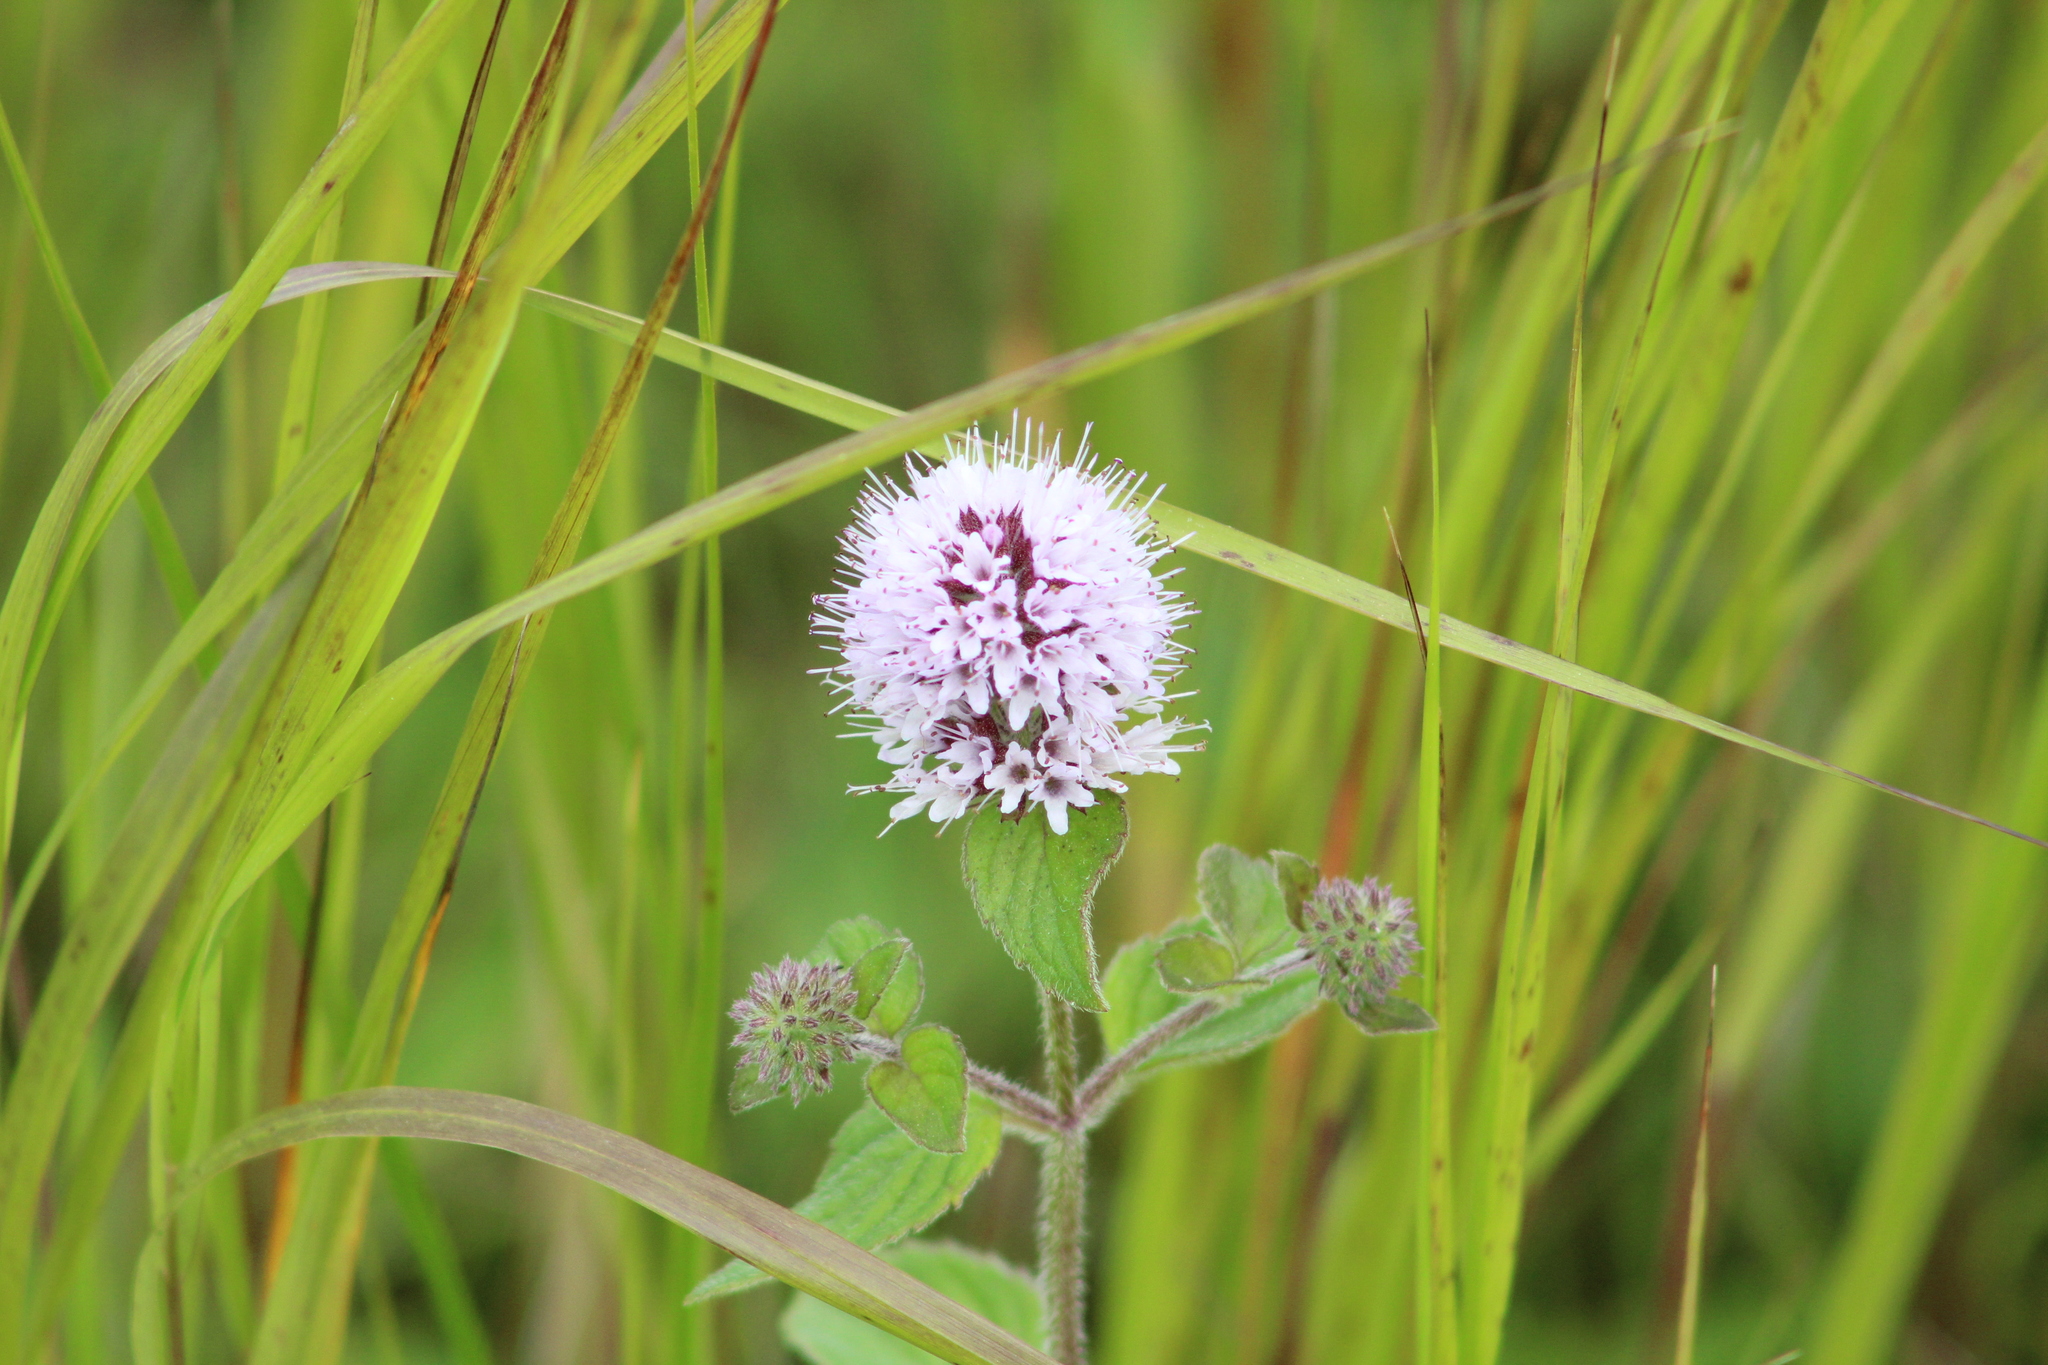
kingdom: Plantae
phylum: Tracheophyta
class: Magnoliopsida
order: Lamiales
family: Lamiaceae
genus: Mentha
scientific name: Mentha aquatica
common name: Water mint
